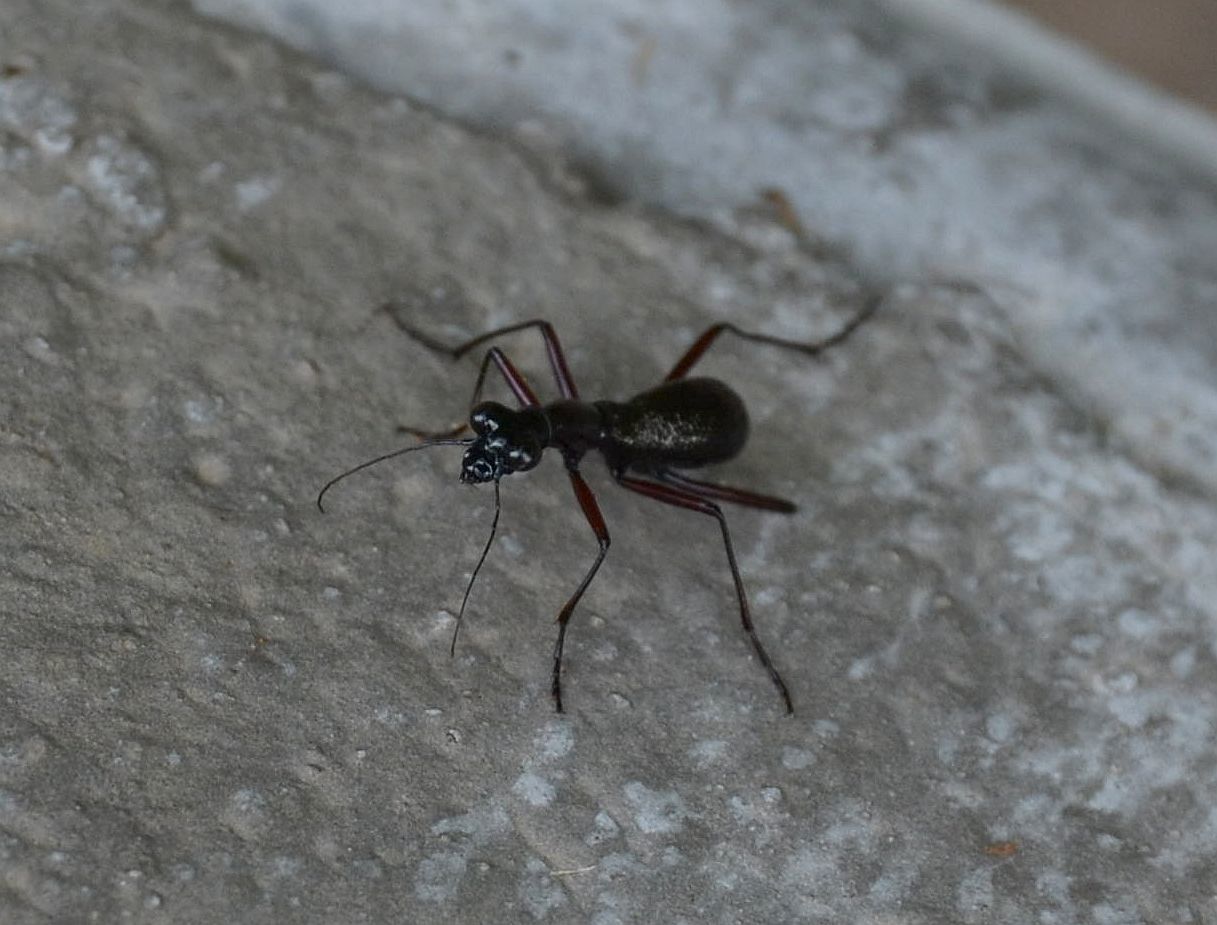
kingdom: Animalia
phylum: Arthropoda
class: Insecta
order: Coleoptera
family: Carabidae
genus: Tricondyla
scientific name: Tricondyla pulchripes
